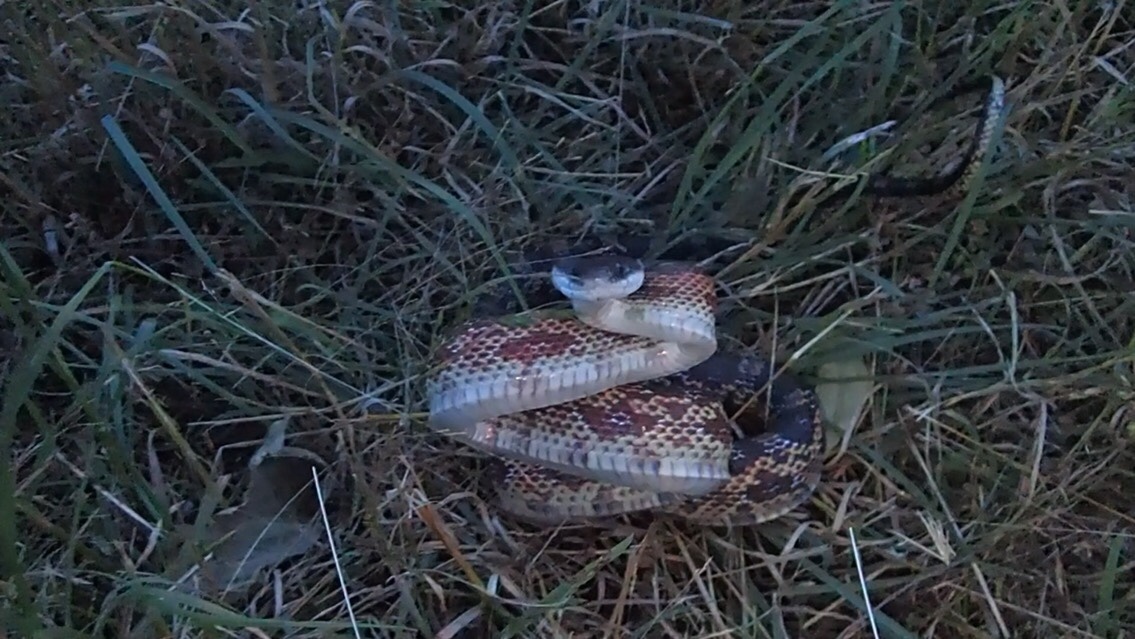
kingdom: Animalia
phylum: Chordata
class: Squamata
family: Colubridae
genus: Pantherophis
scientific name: Pantherophis obsoletus
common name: Black rat snake
